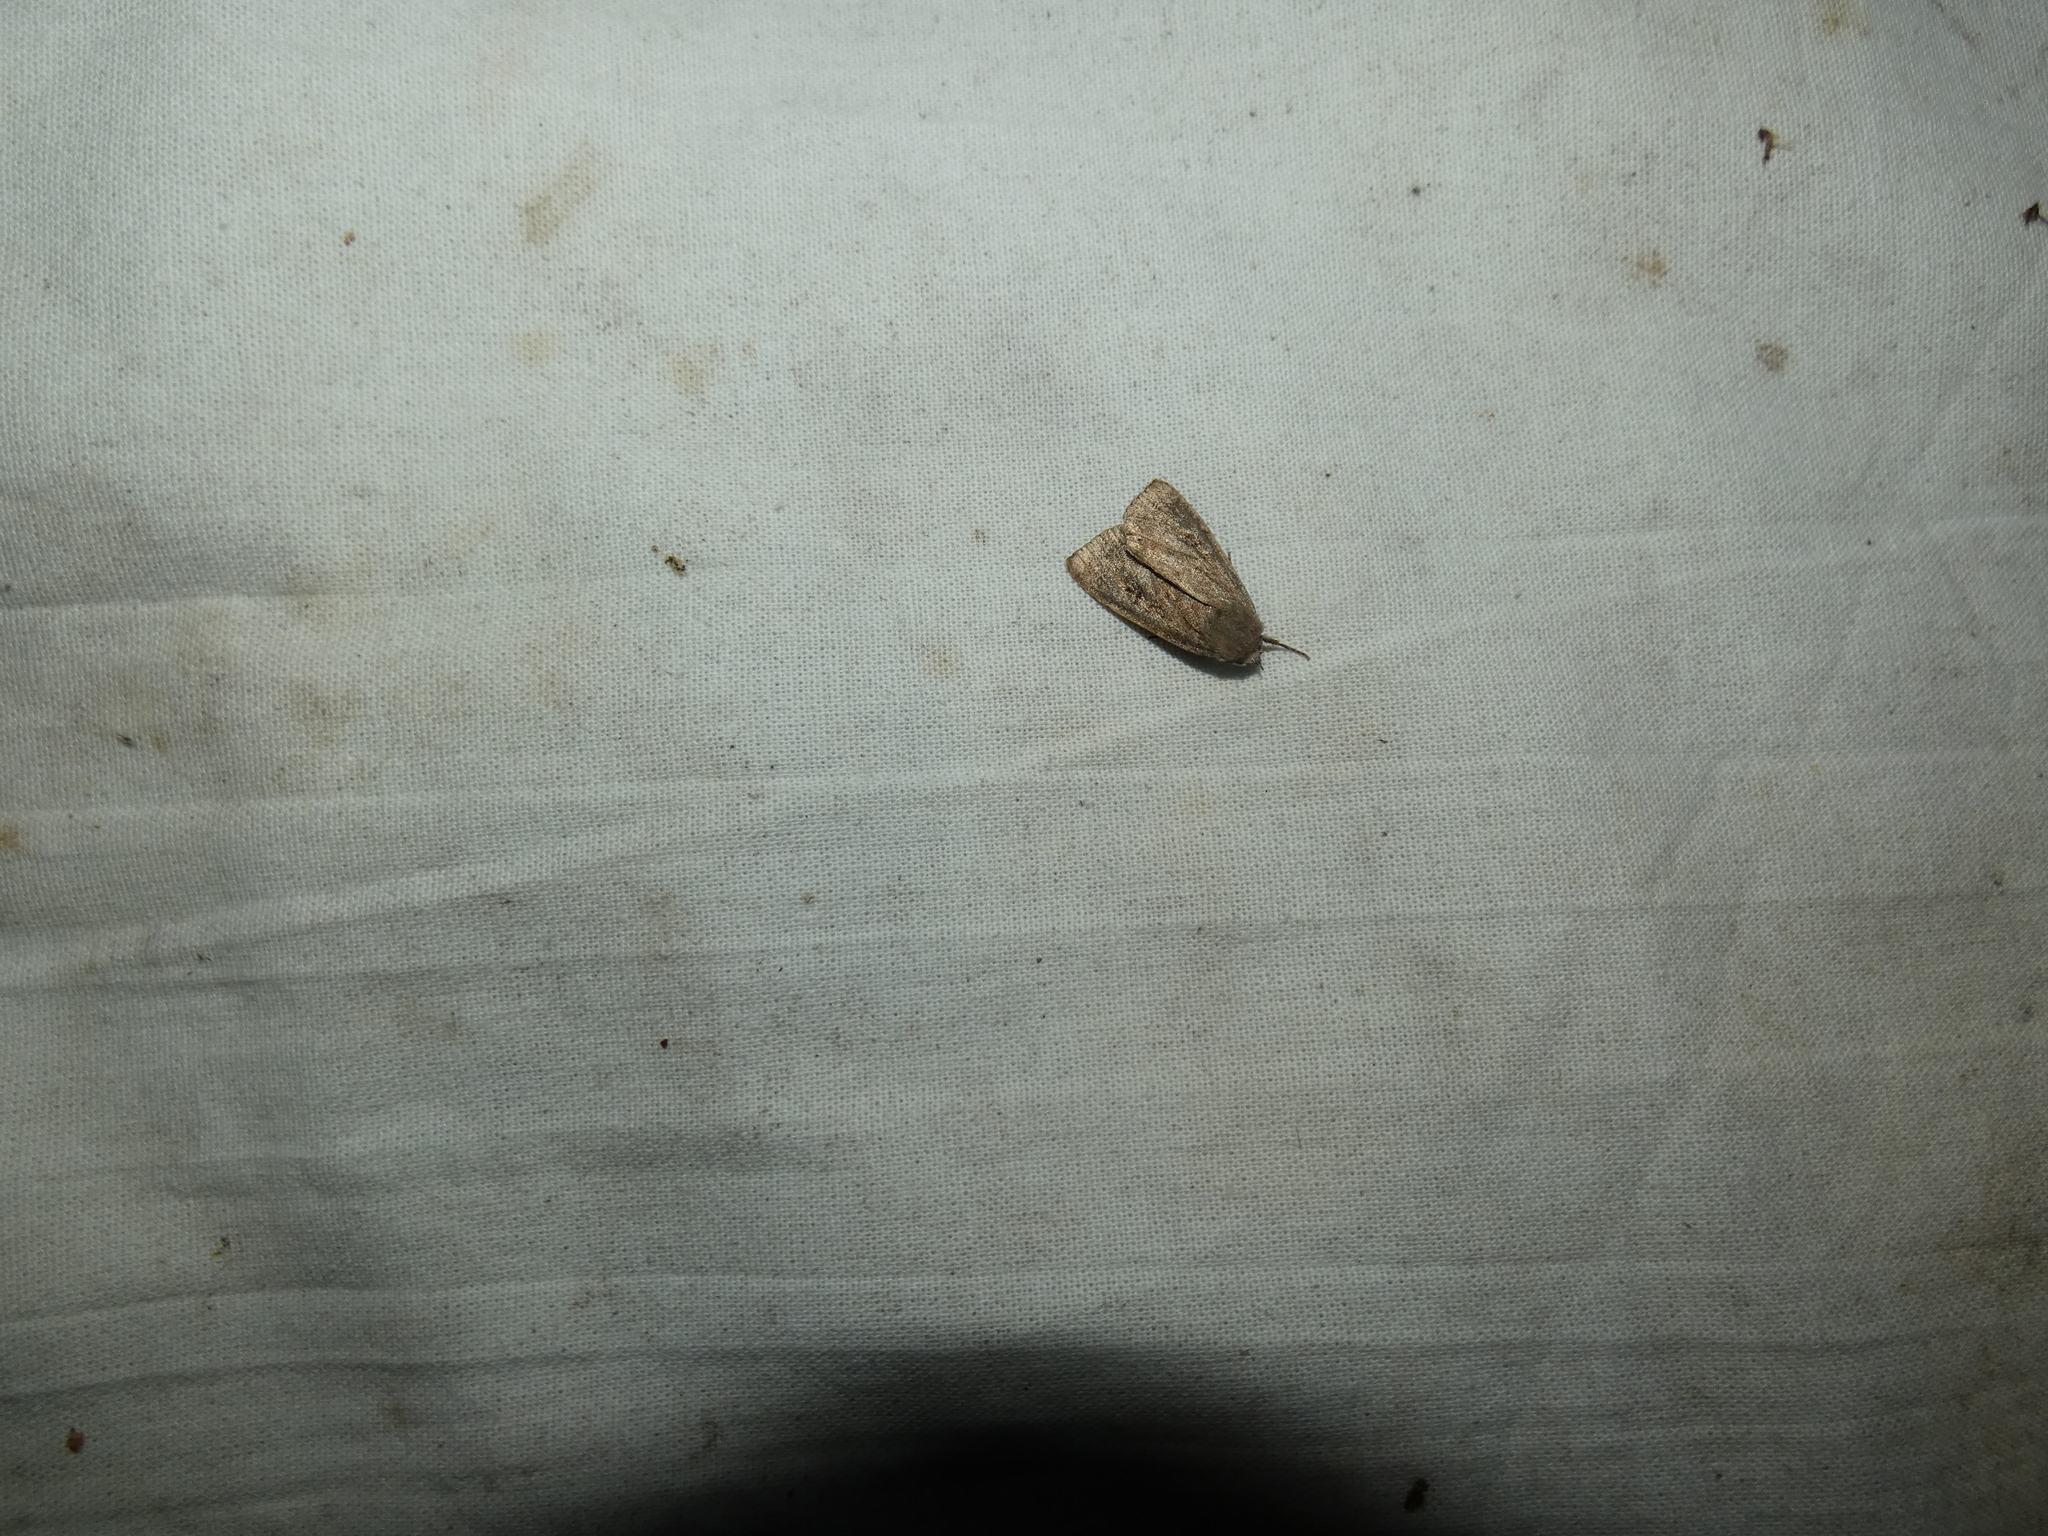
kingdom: Animalia
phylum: Arthropoda
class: Insecta
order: Lepidoptera
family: Noctuidae
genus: Graphiphora
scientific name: Graphiphora augur
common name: Double dart
